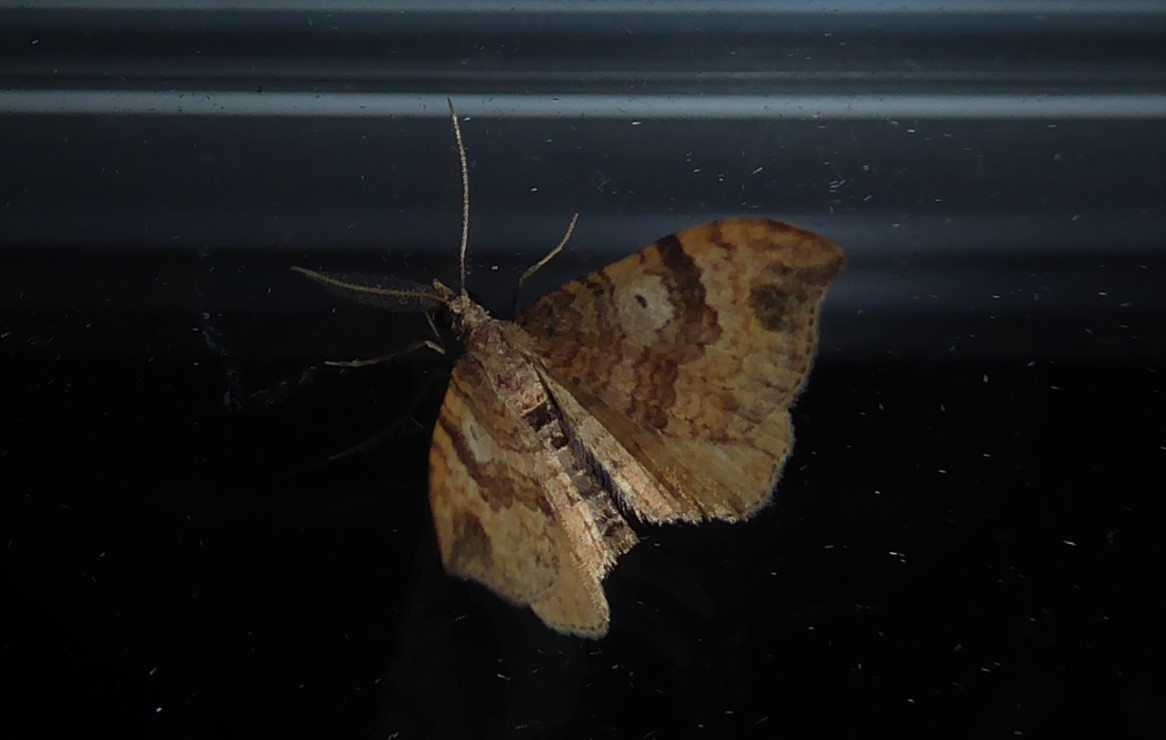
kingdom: Animalia
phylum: Arthropoda
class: Insecta
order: Lepidoptera
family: Geometridae
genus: Homodotis
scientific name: Homodotis falcata
